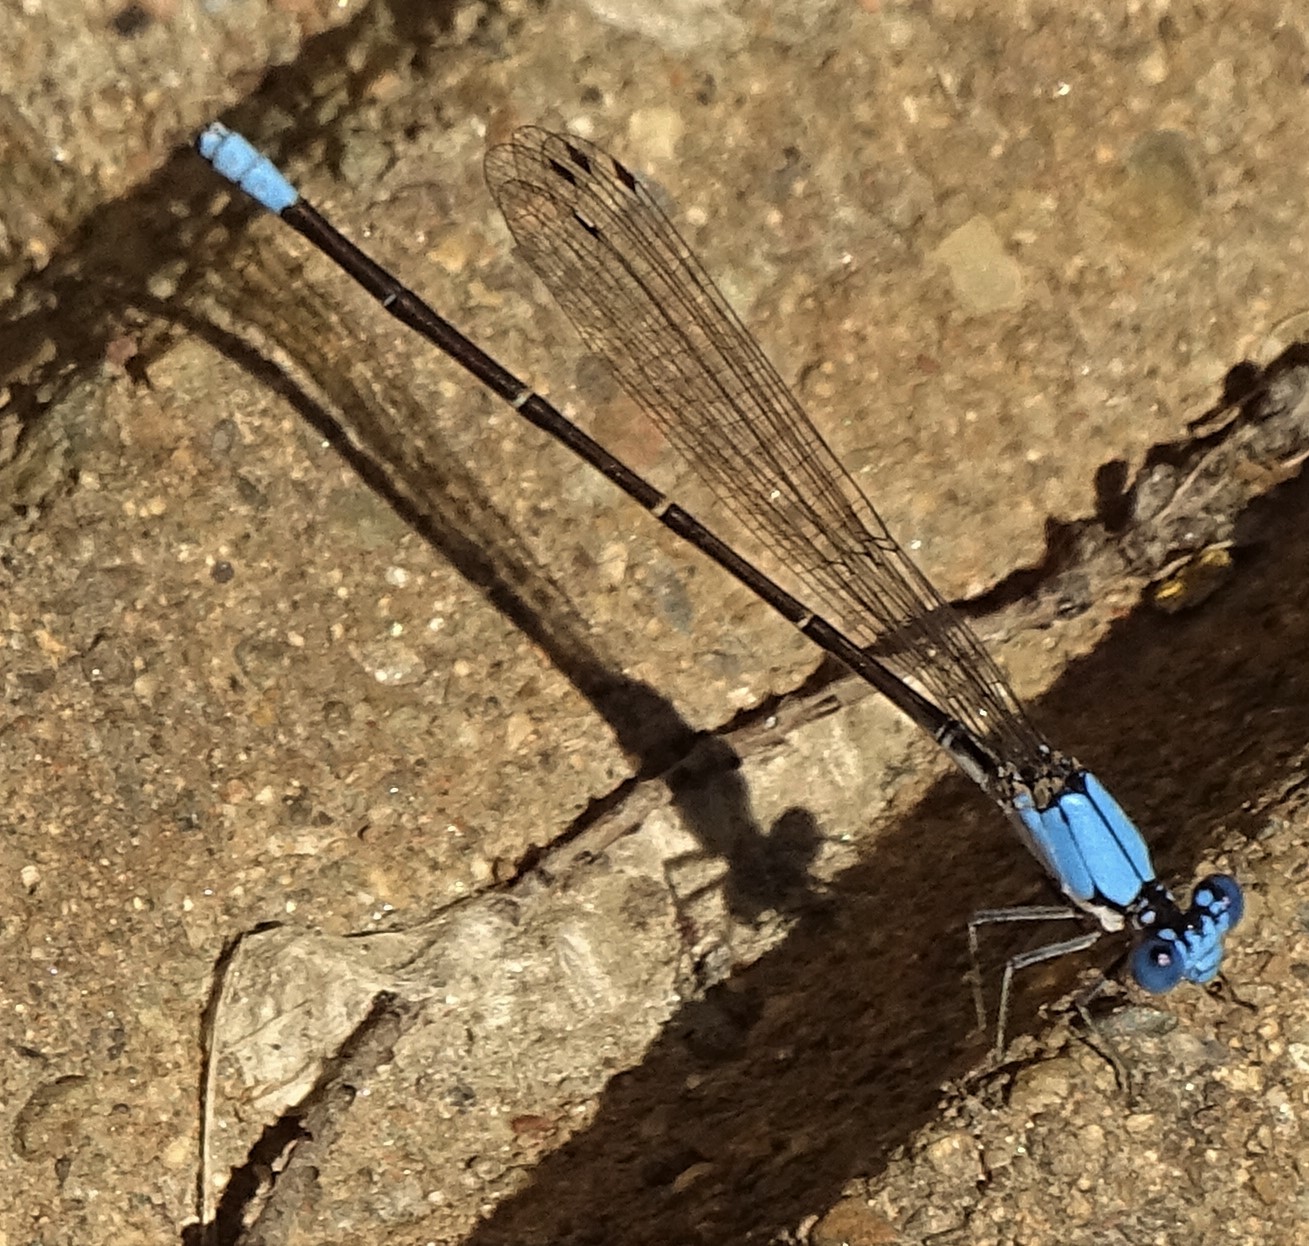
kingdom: Animalia
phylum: Arthropoda
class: Insecta
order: Odonata
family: Coenagrionidae
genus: Argia
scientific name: Argia apicalis
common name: Blue-fronted dancer
